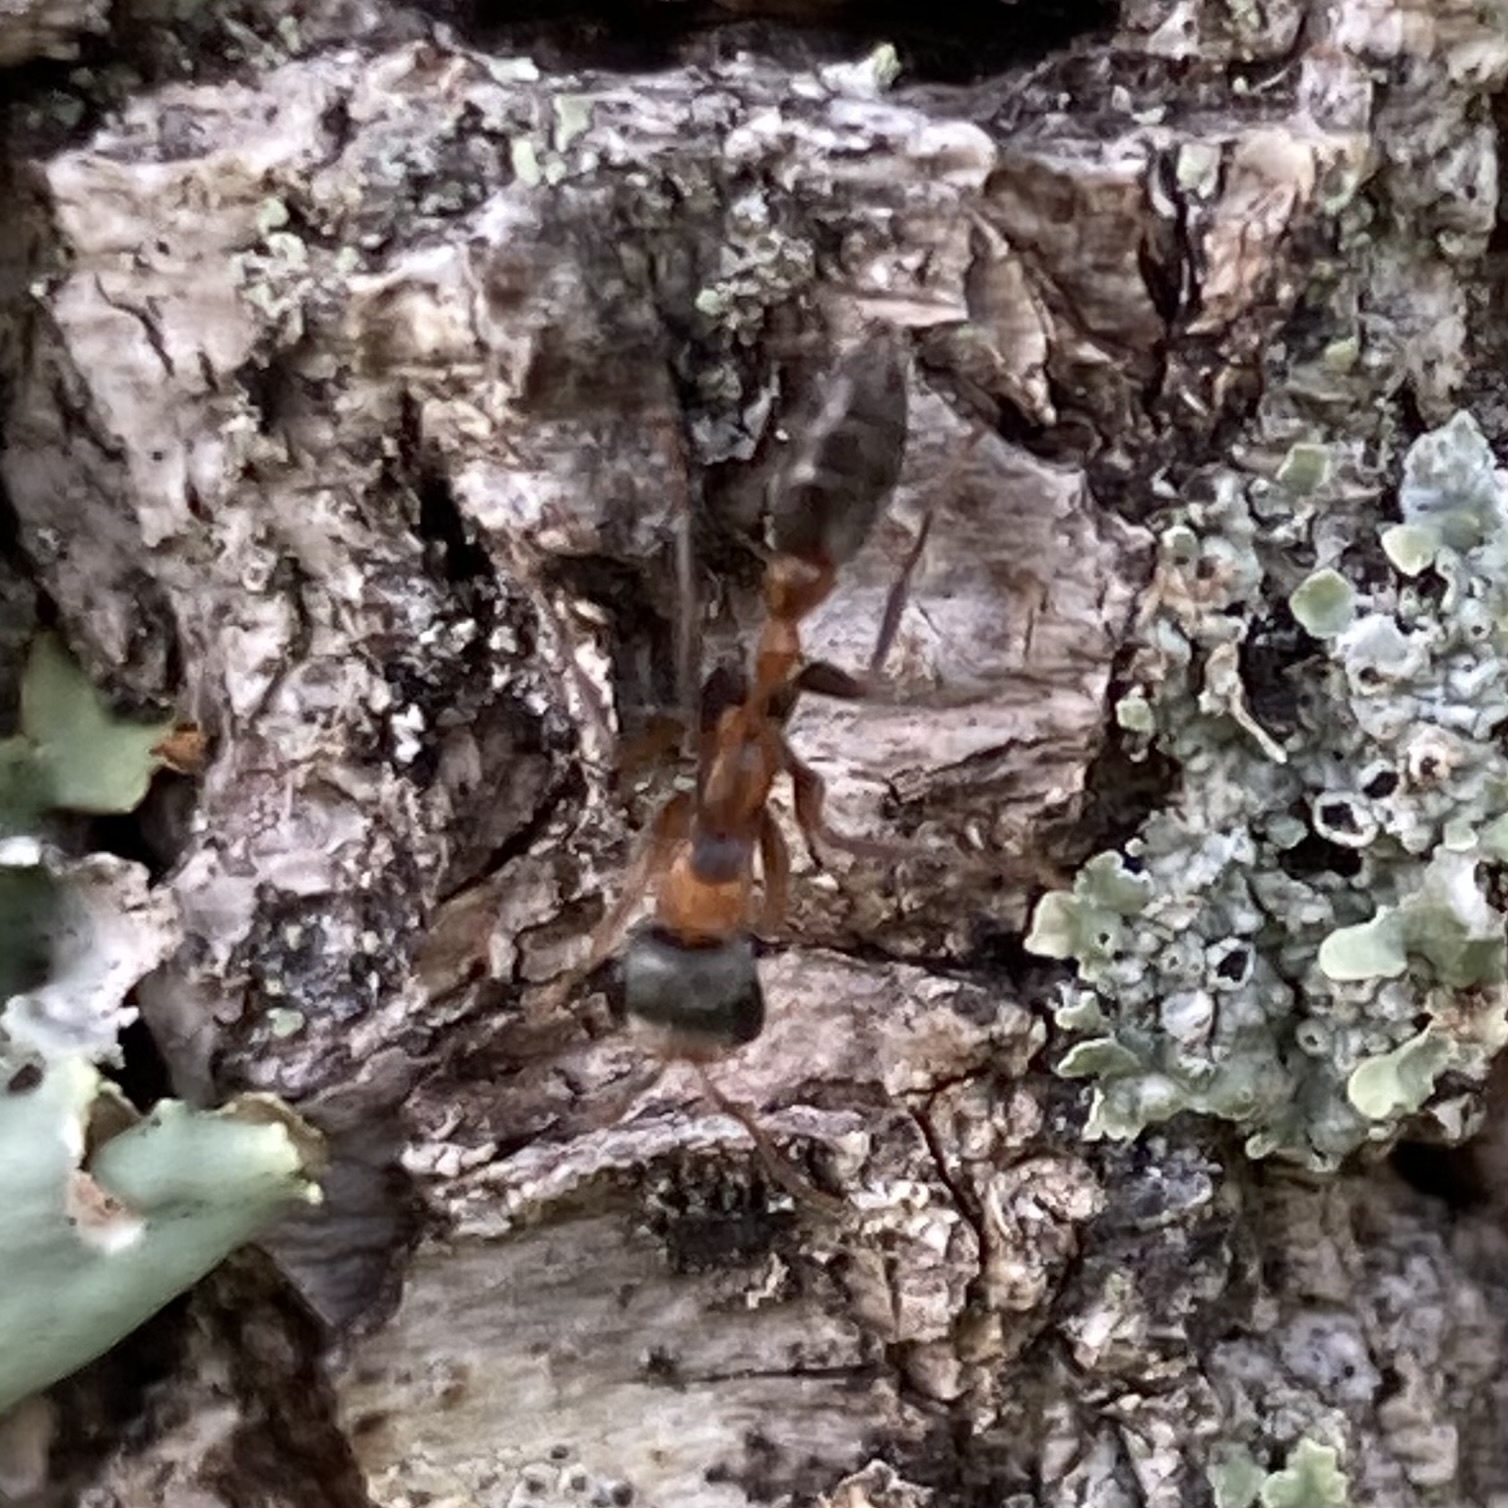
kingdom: Animalia
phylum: Arthropoda
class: Insecta
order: Hymenoptera
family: Formicidae
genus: Pseudomyrmex
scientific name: Pseudomyrmex gracilis
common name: Graceful twig ant
